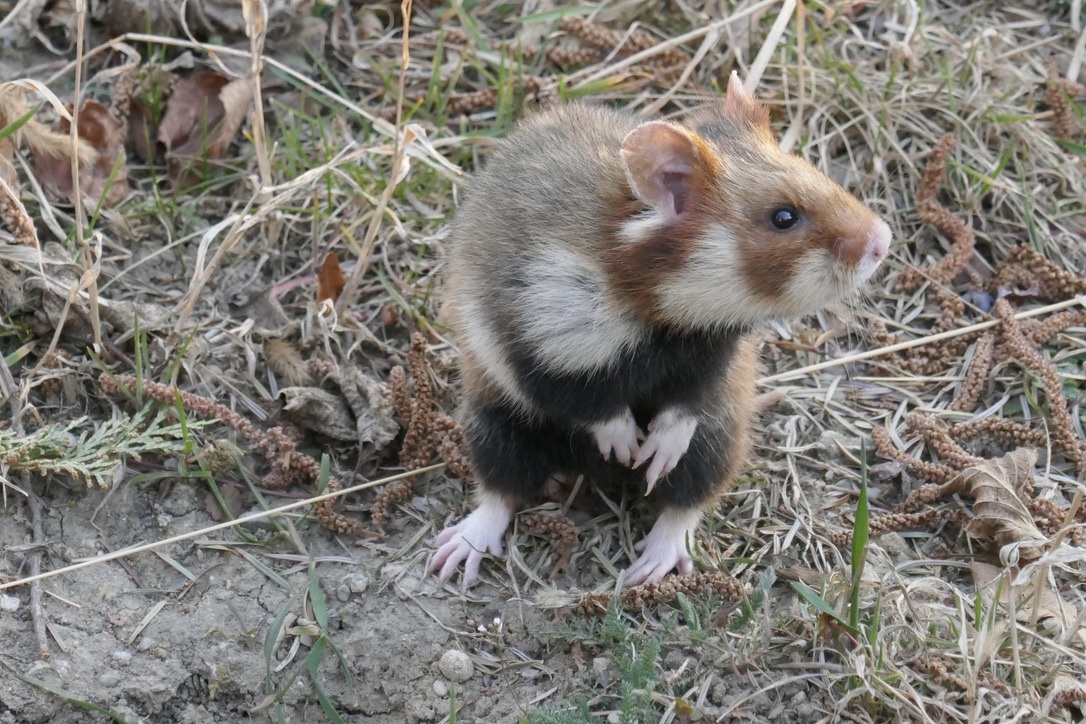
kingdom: Animalia
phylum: Chordata
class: Mammalia
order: Rodentia
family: Cricetidae
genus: Cricetus
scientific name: Cricetus cricetus
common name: Common hamster
